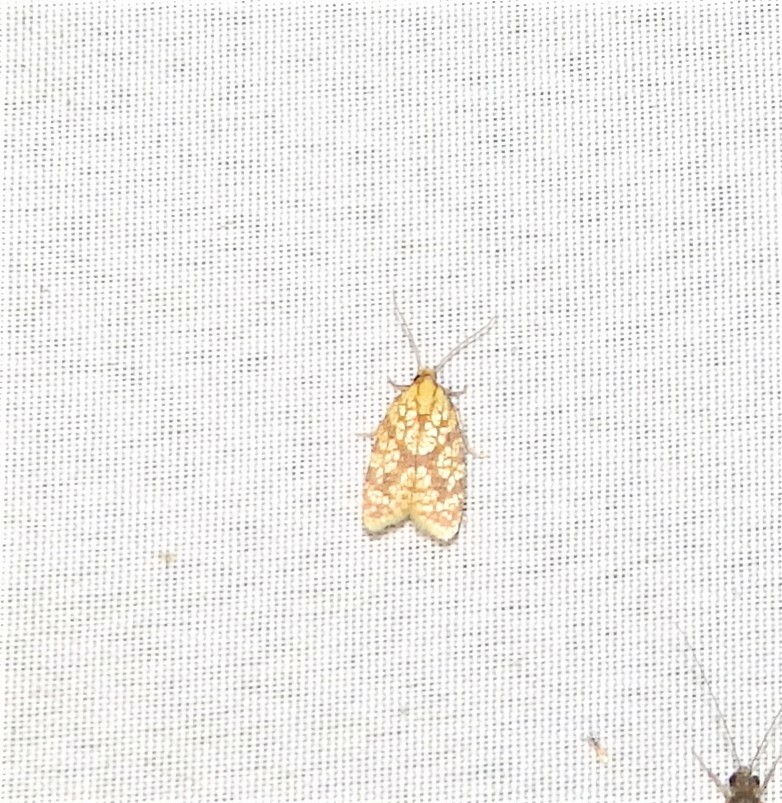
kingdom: Animalia
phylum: Arthropoda
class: Insecta
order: Lepidoptera
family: Tortricidae
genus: Sparganothis
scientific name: Sparganothis sulfureana
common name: Sparganothis fruitworm moth
